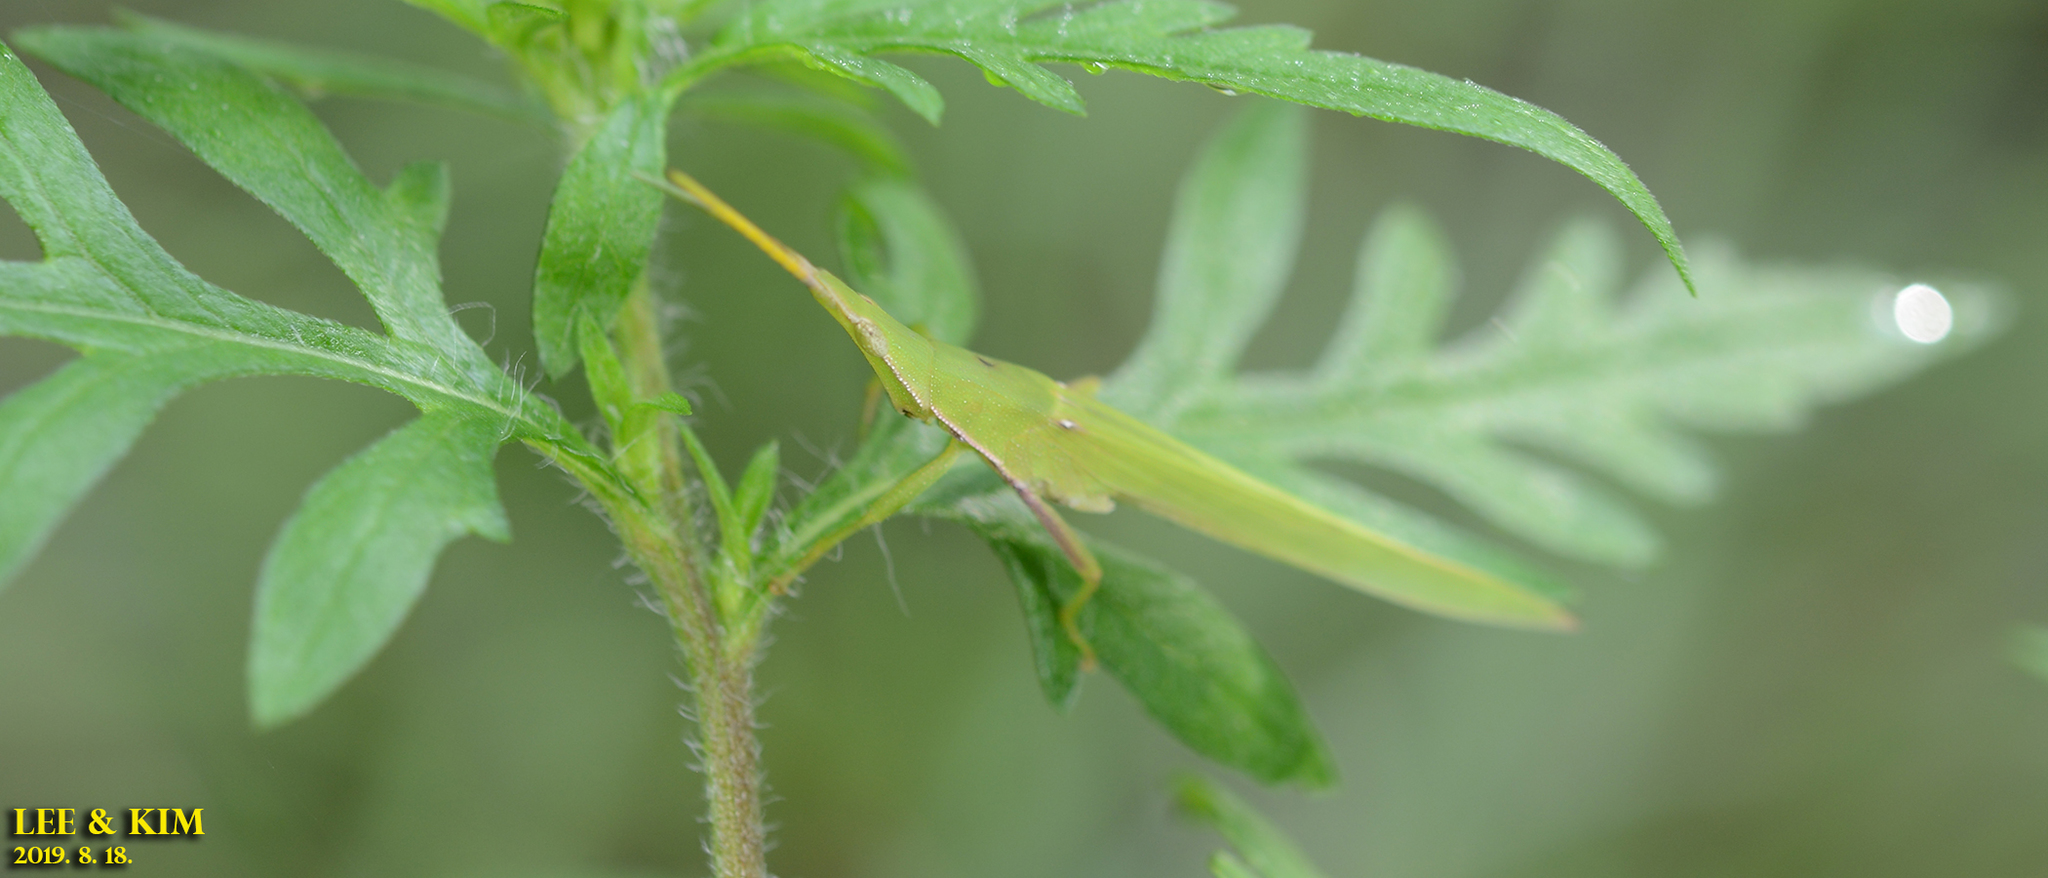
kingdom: Animalia
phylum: Arthropoda
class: Insecta
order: Orthoptera
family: Pyrgomorphidae
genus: Atractomorpha
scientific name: Atractomorpha lata
